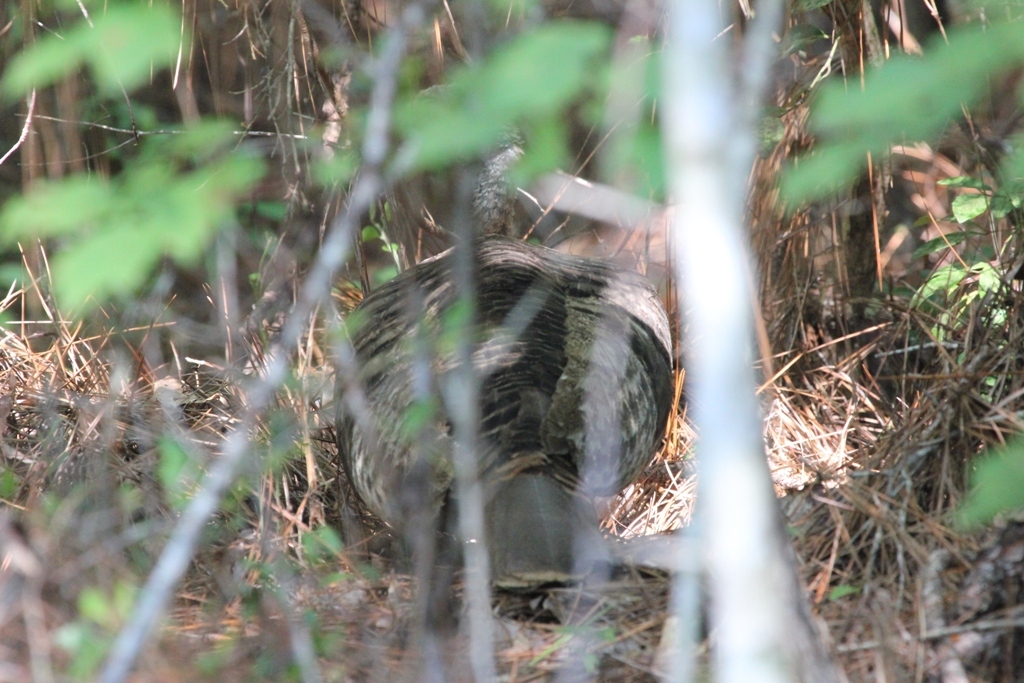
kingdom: Animalia
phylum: Chordata
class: Aves
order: Galliformes
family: Phasianidae
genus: Meleagris
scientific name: Meleagris gallopavo
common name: Wild turkey
